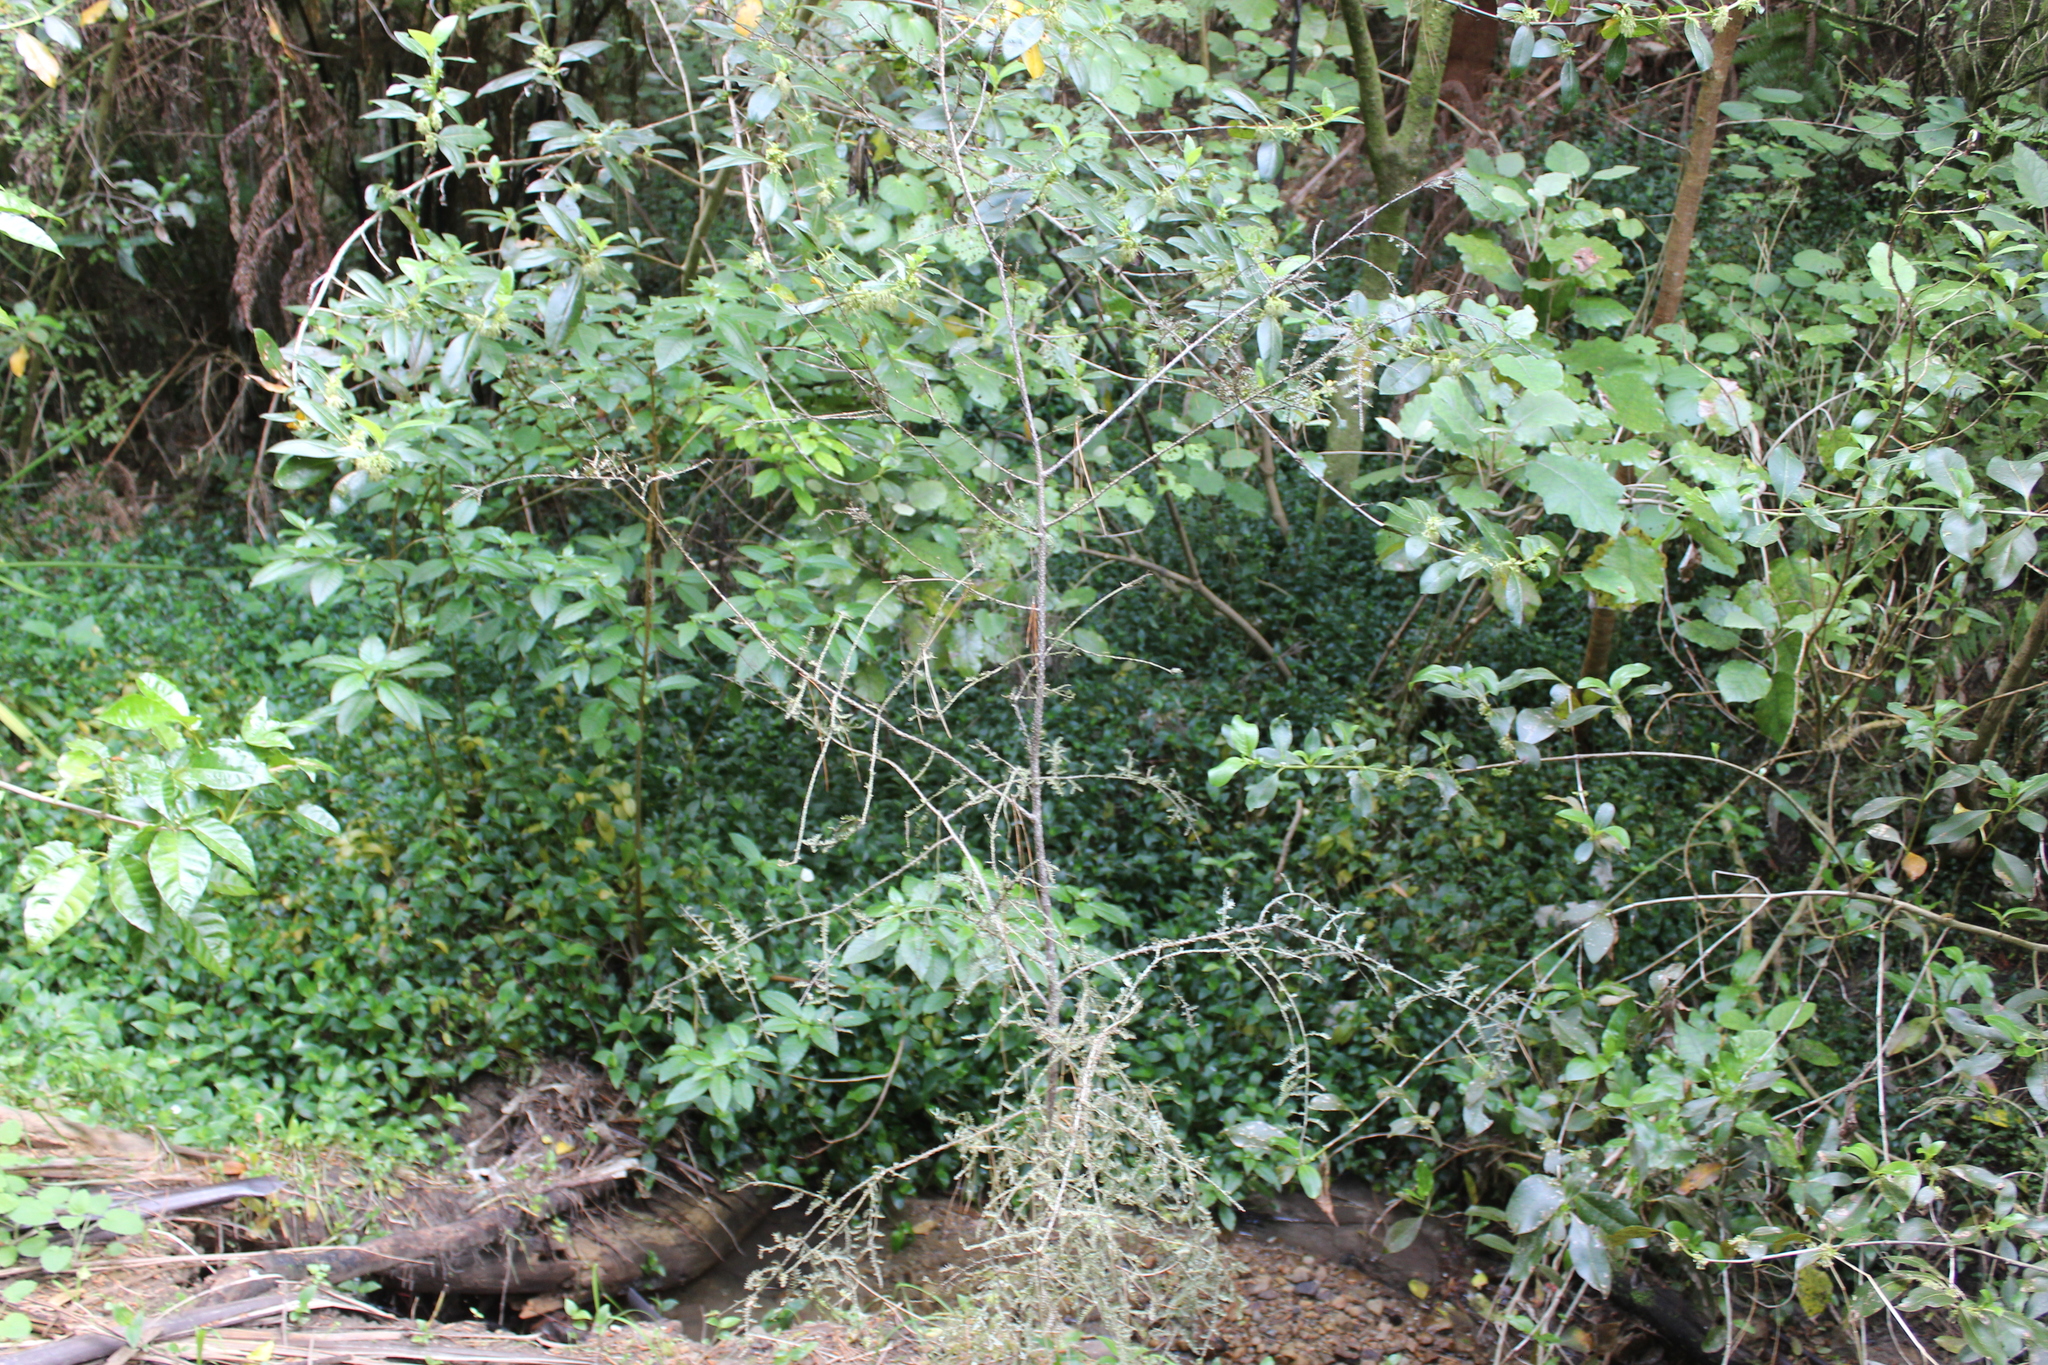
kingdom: Plantae
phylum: Tracheophyta
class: Pinopsida
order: Pinales
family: Podocarpaceae
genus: Dacrycarpus
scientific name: Dacrycarpus dacrydioides
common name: White pine
